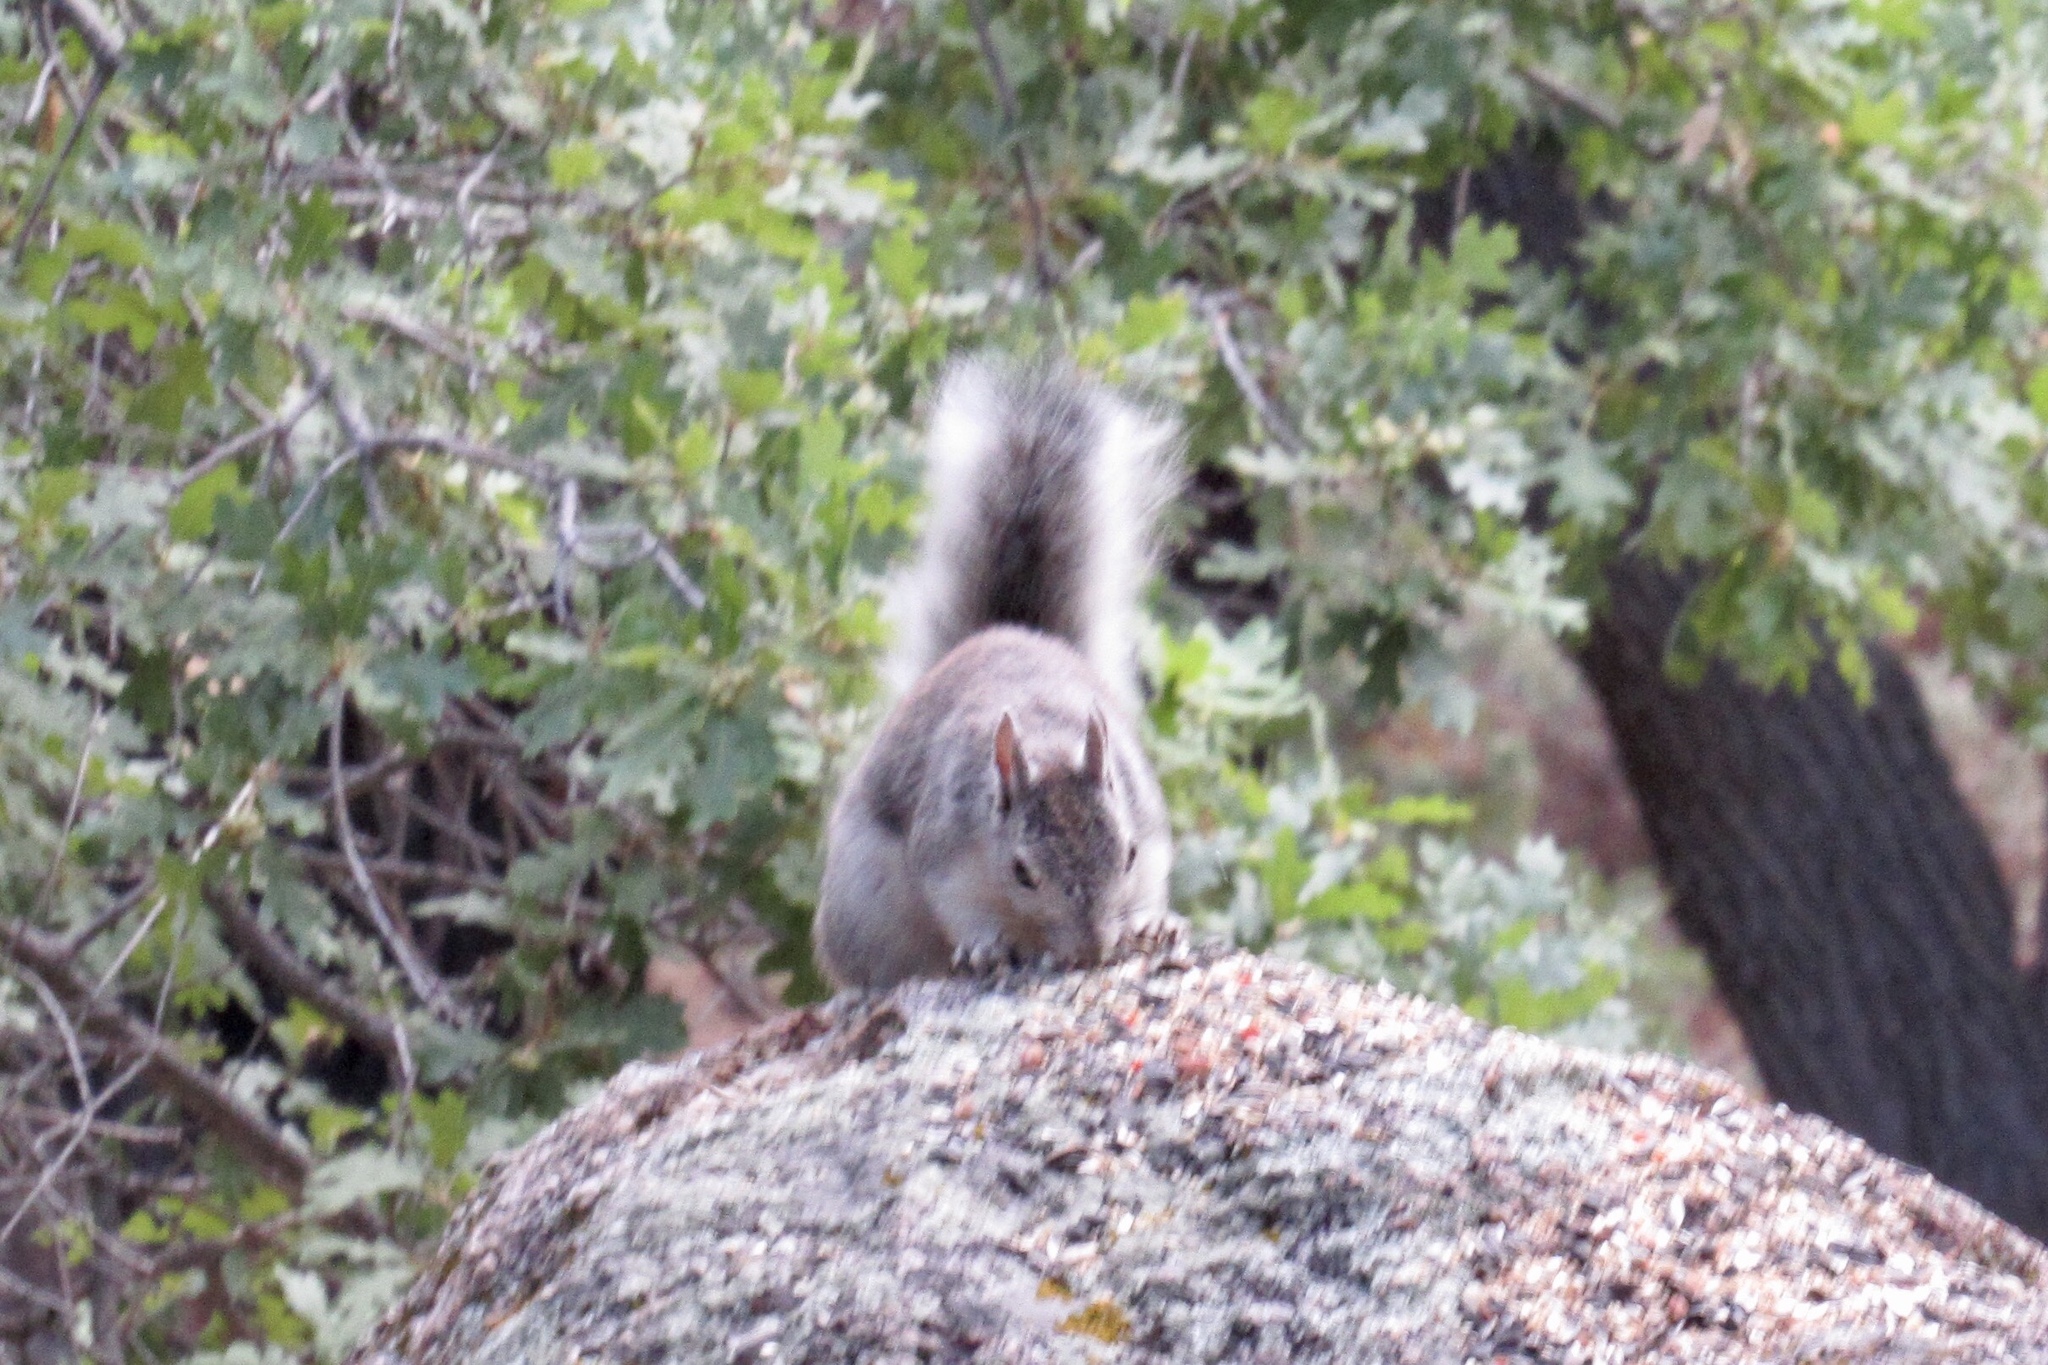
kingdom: Animalia
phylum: Chordata
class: Mammalia
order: Rodentia
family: Sciuridae
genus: Sciurus
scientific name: Sciurus aberti
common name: Abert's squirrel
